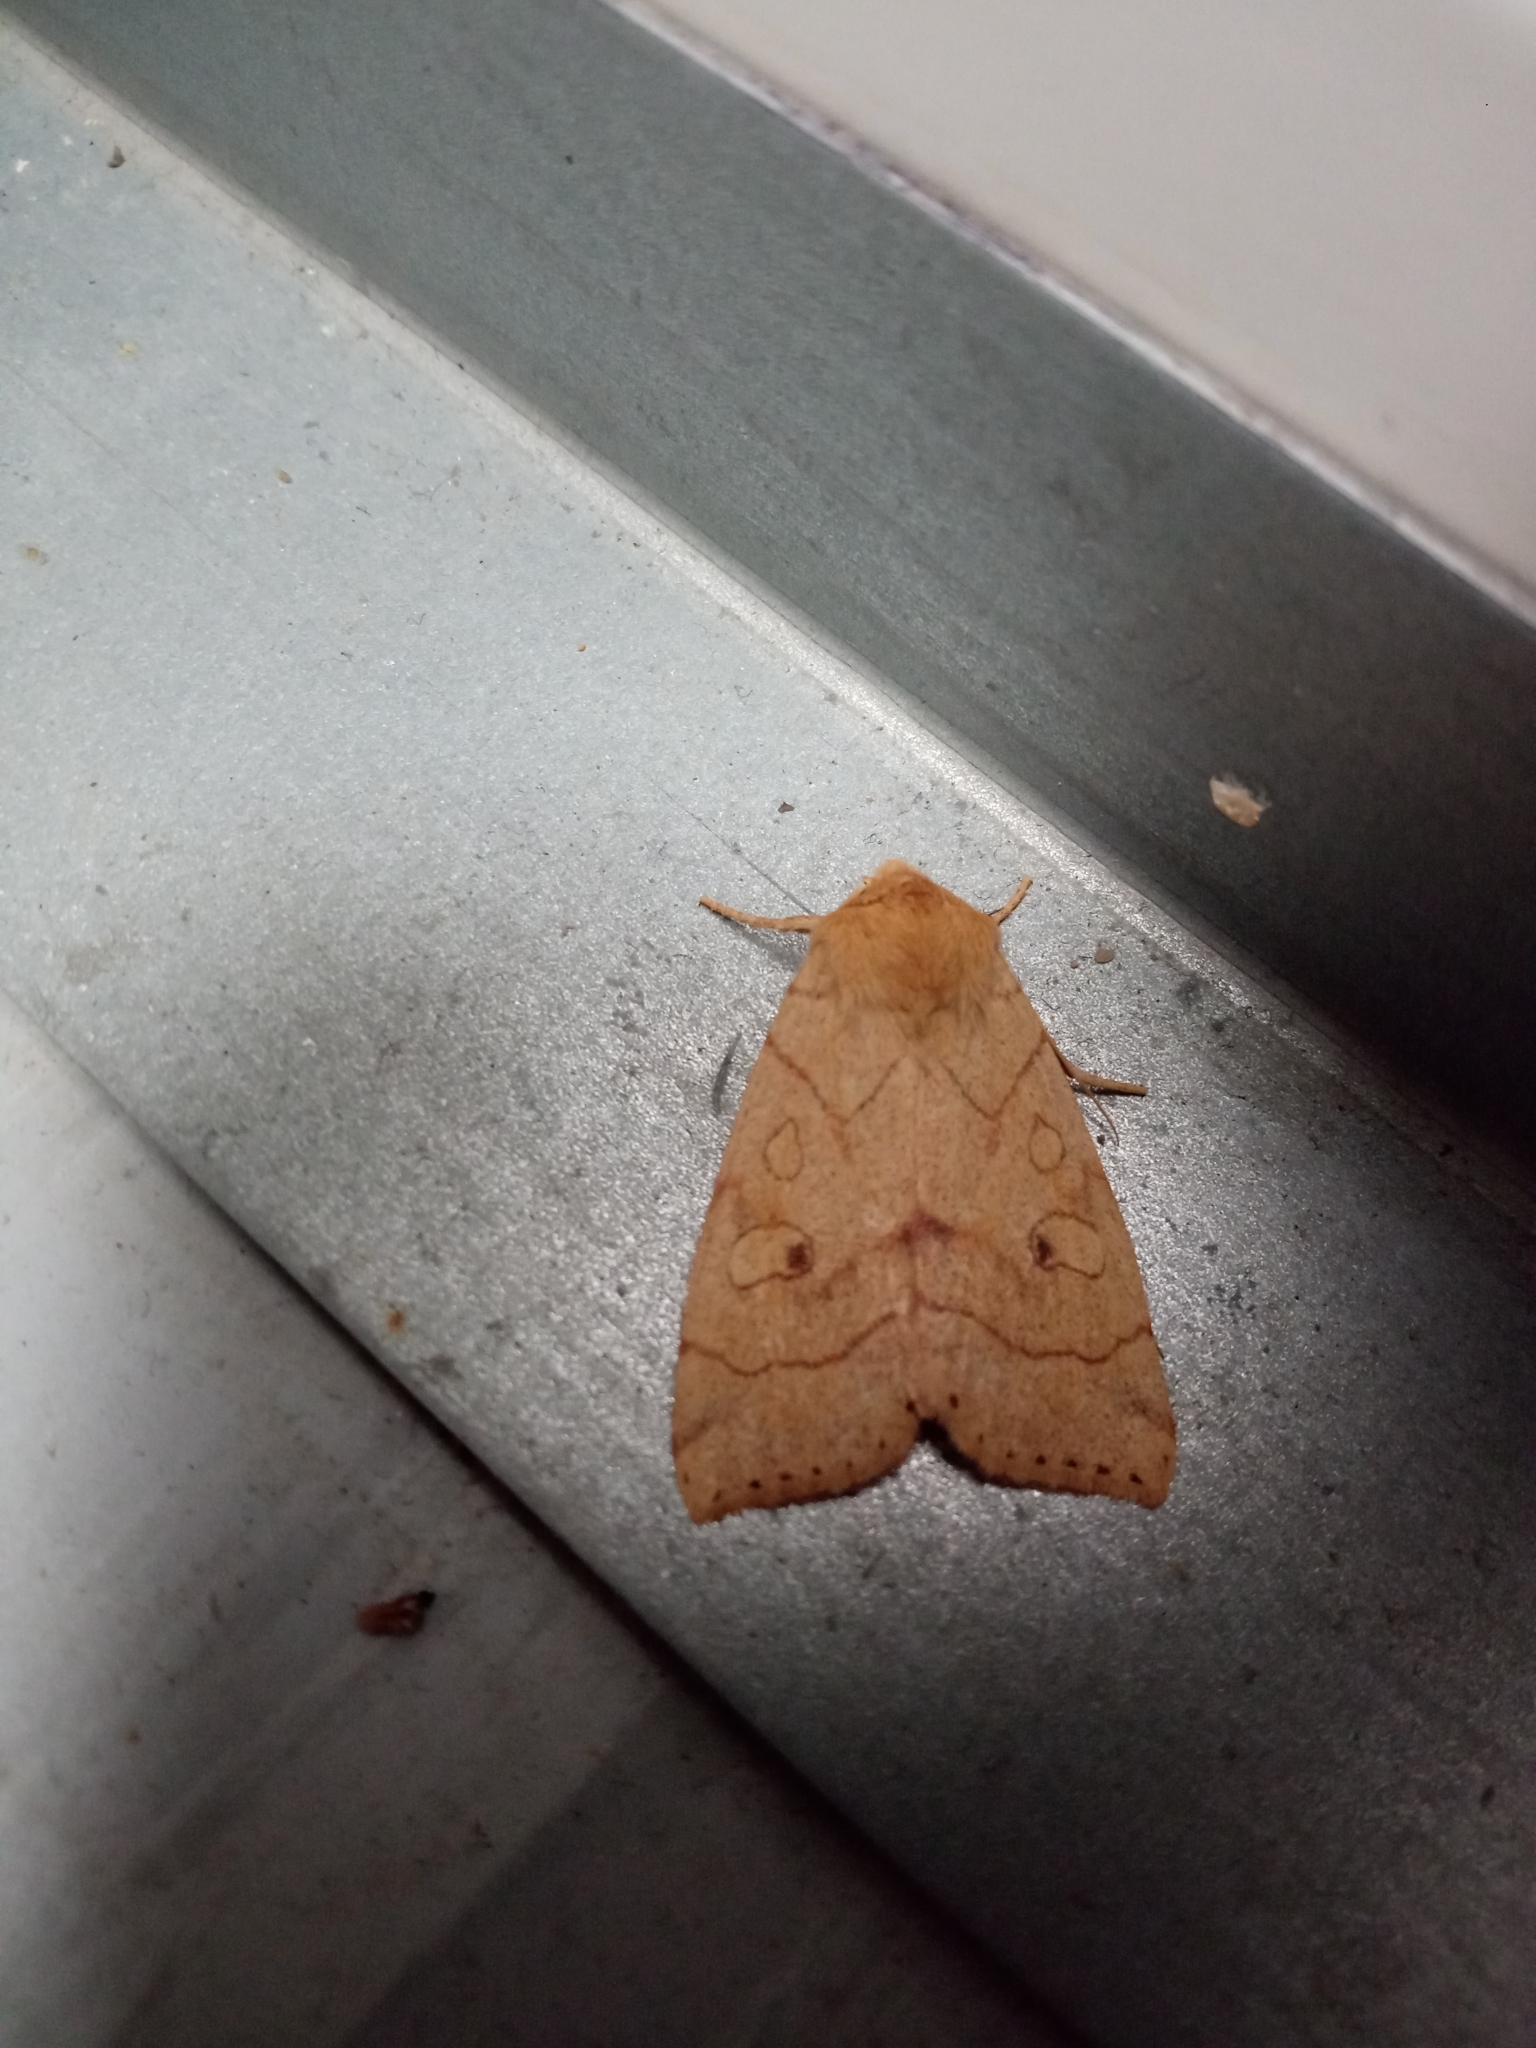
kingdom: Animalia
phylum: Arthropoda
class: Insecta
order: Lepidoptera
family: Noctuidae
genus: Enargia
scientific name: Enargia paleacea
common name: Angle-striped sallow
